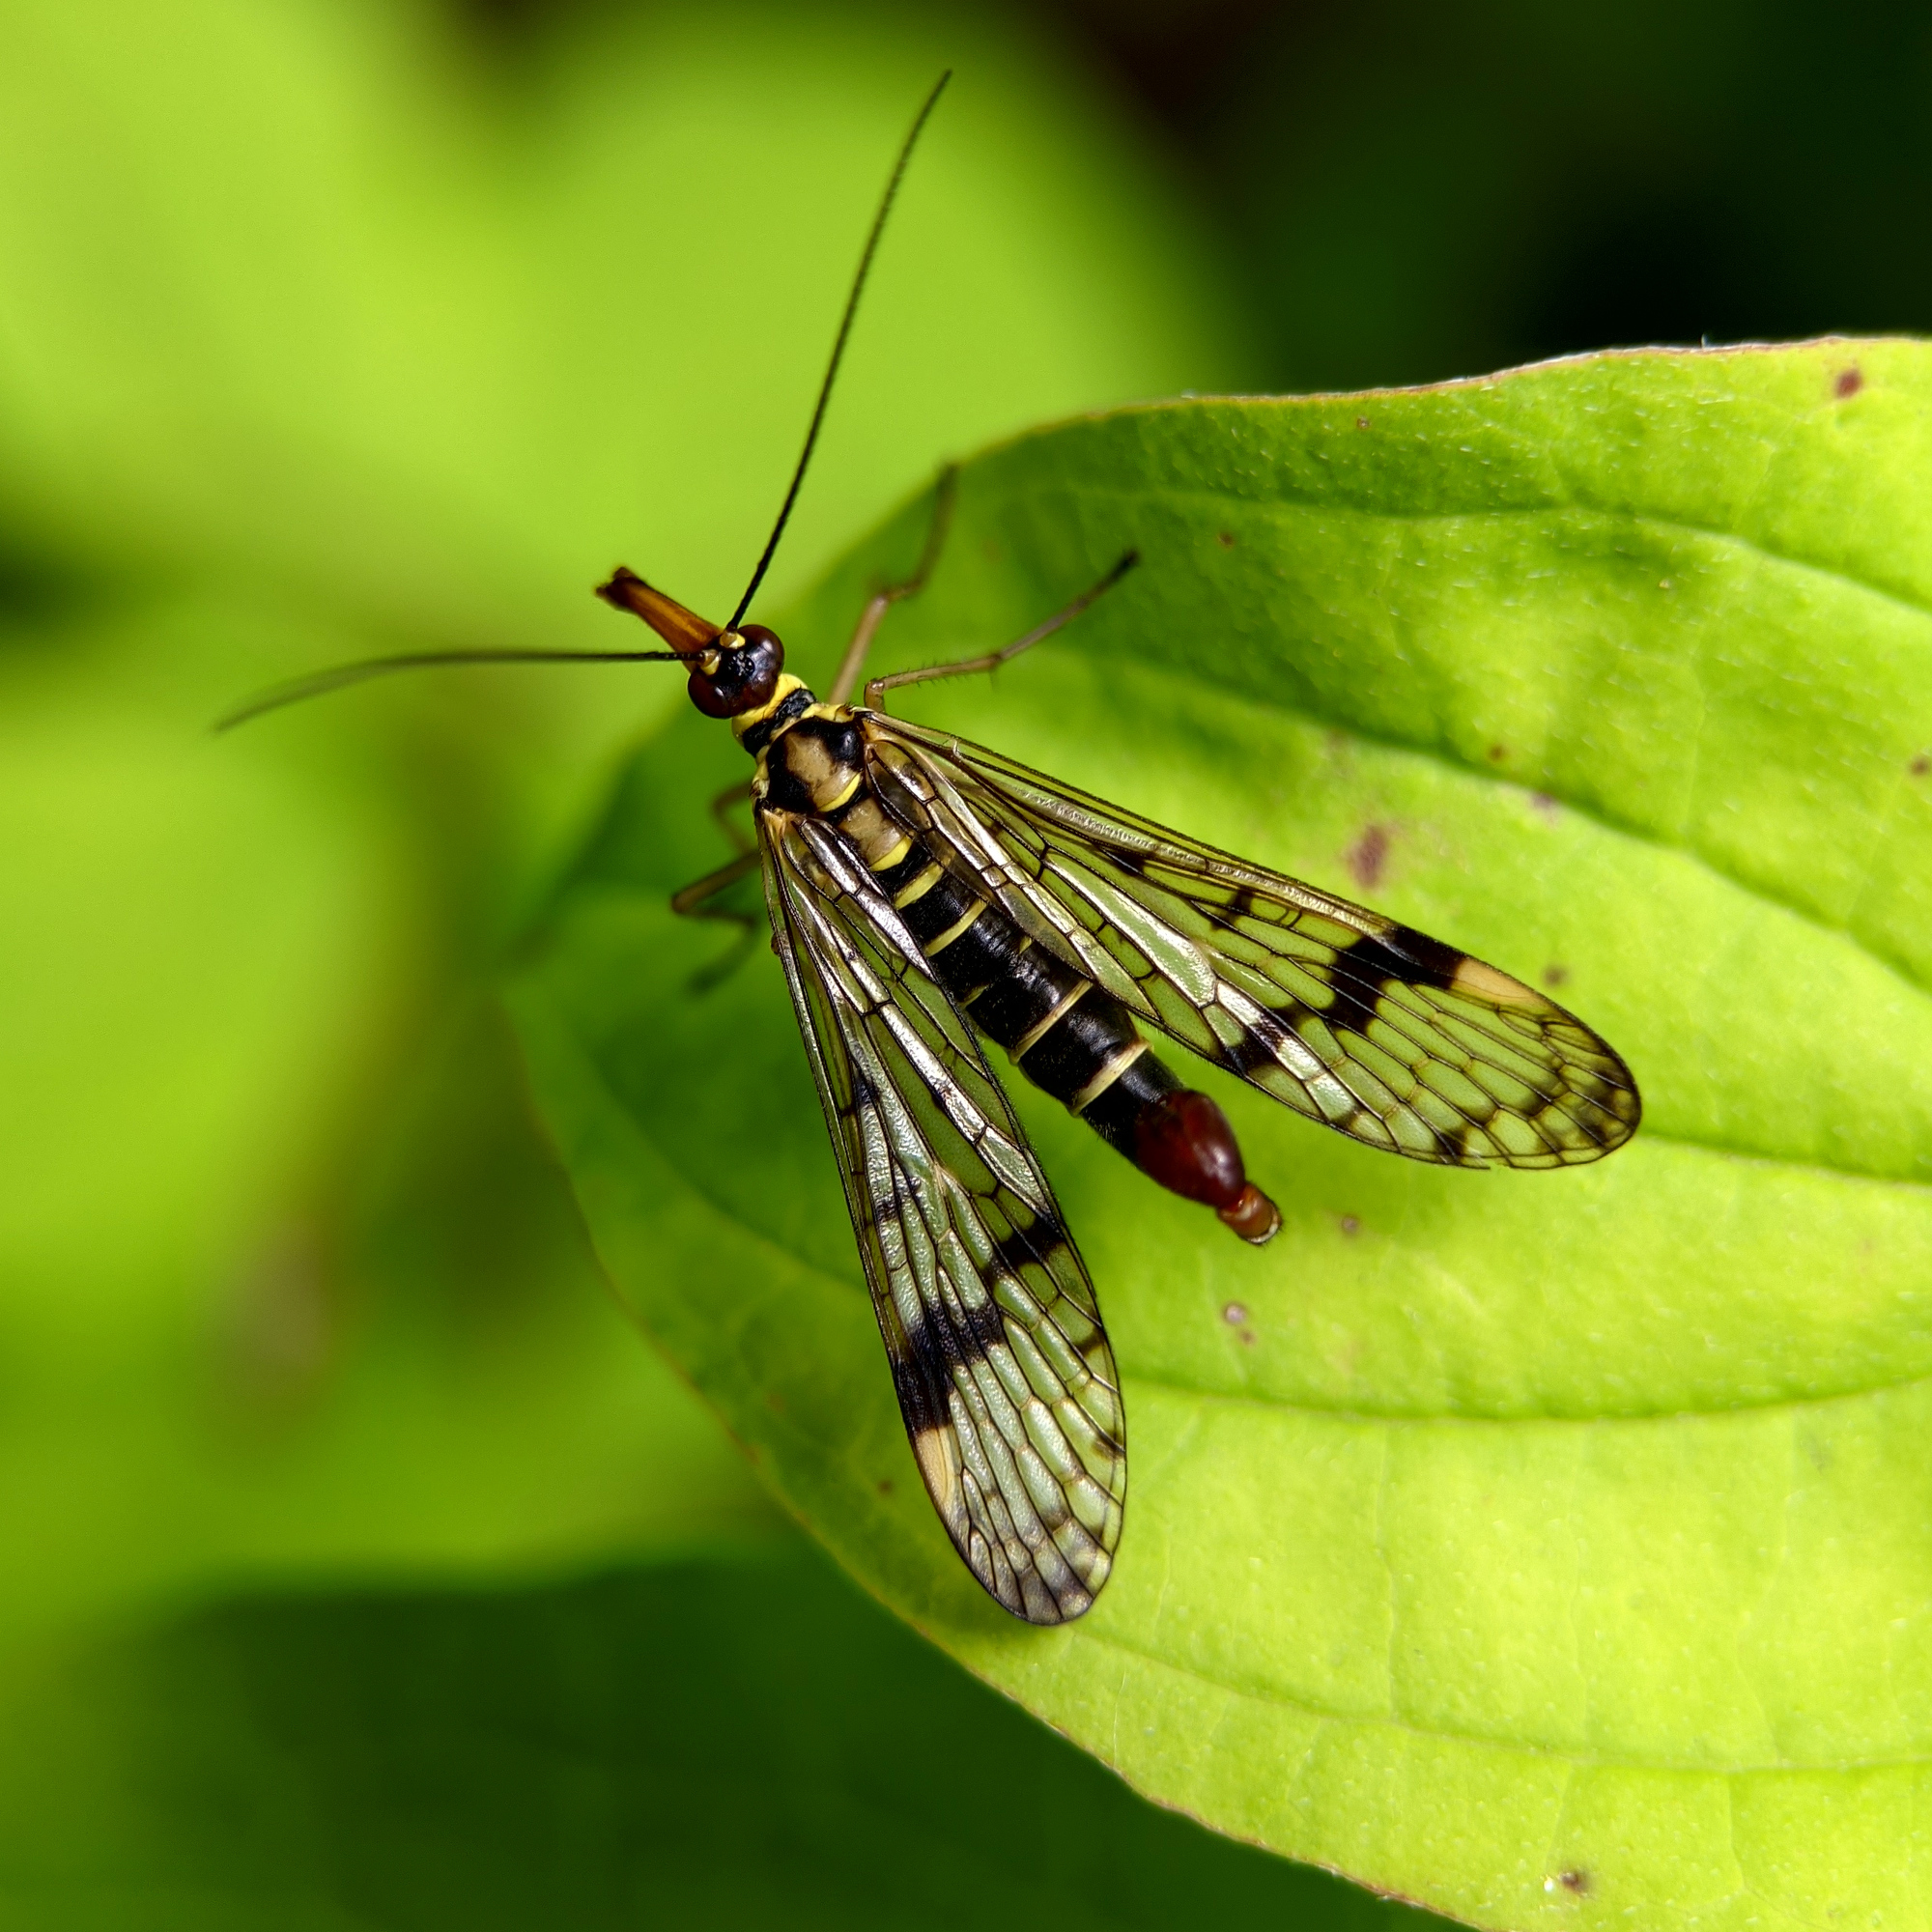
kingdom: Animalia
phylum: Arthropoda
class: Insecta
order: Mecoptera
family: Panorpidae
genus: Panorpa
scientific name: Panorpa communis
